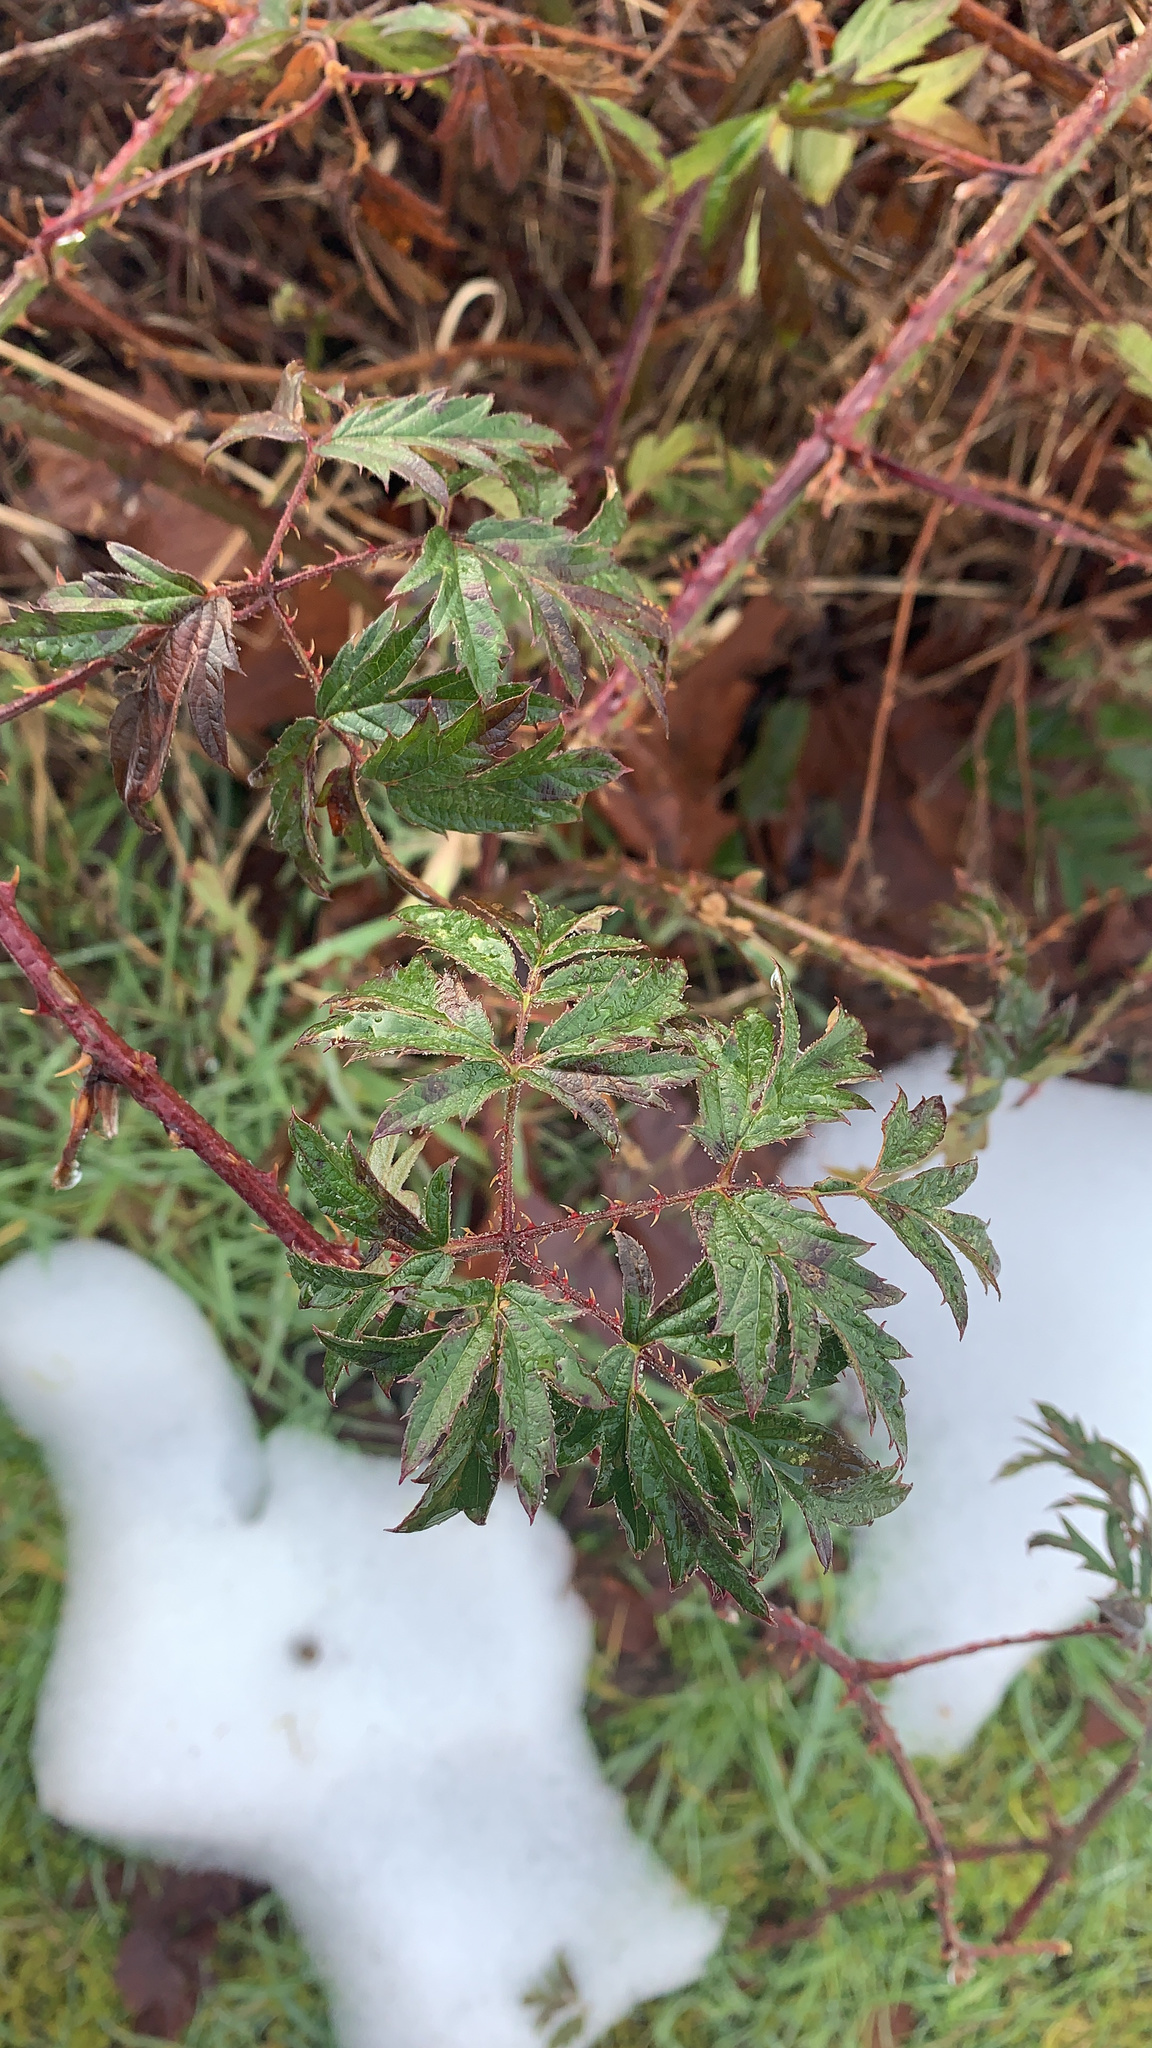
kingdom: Plantae
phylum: Tracheophyta
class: Magnoliopsida
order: Rosales
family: Rosaceae
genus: Rubus
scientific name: Rubus laciniatus
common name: Evergreen blackberry
